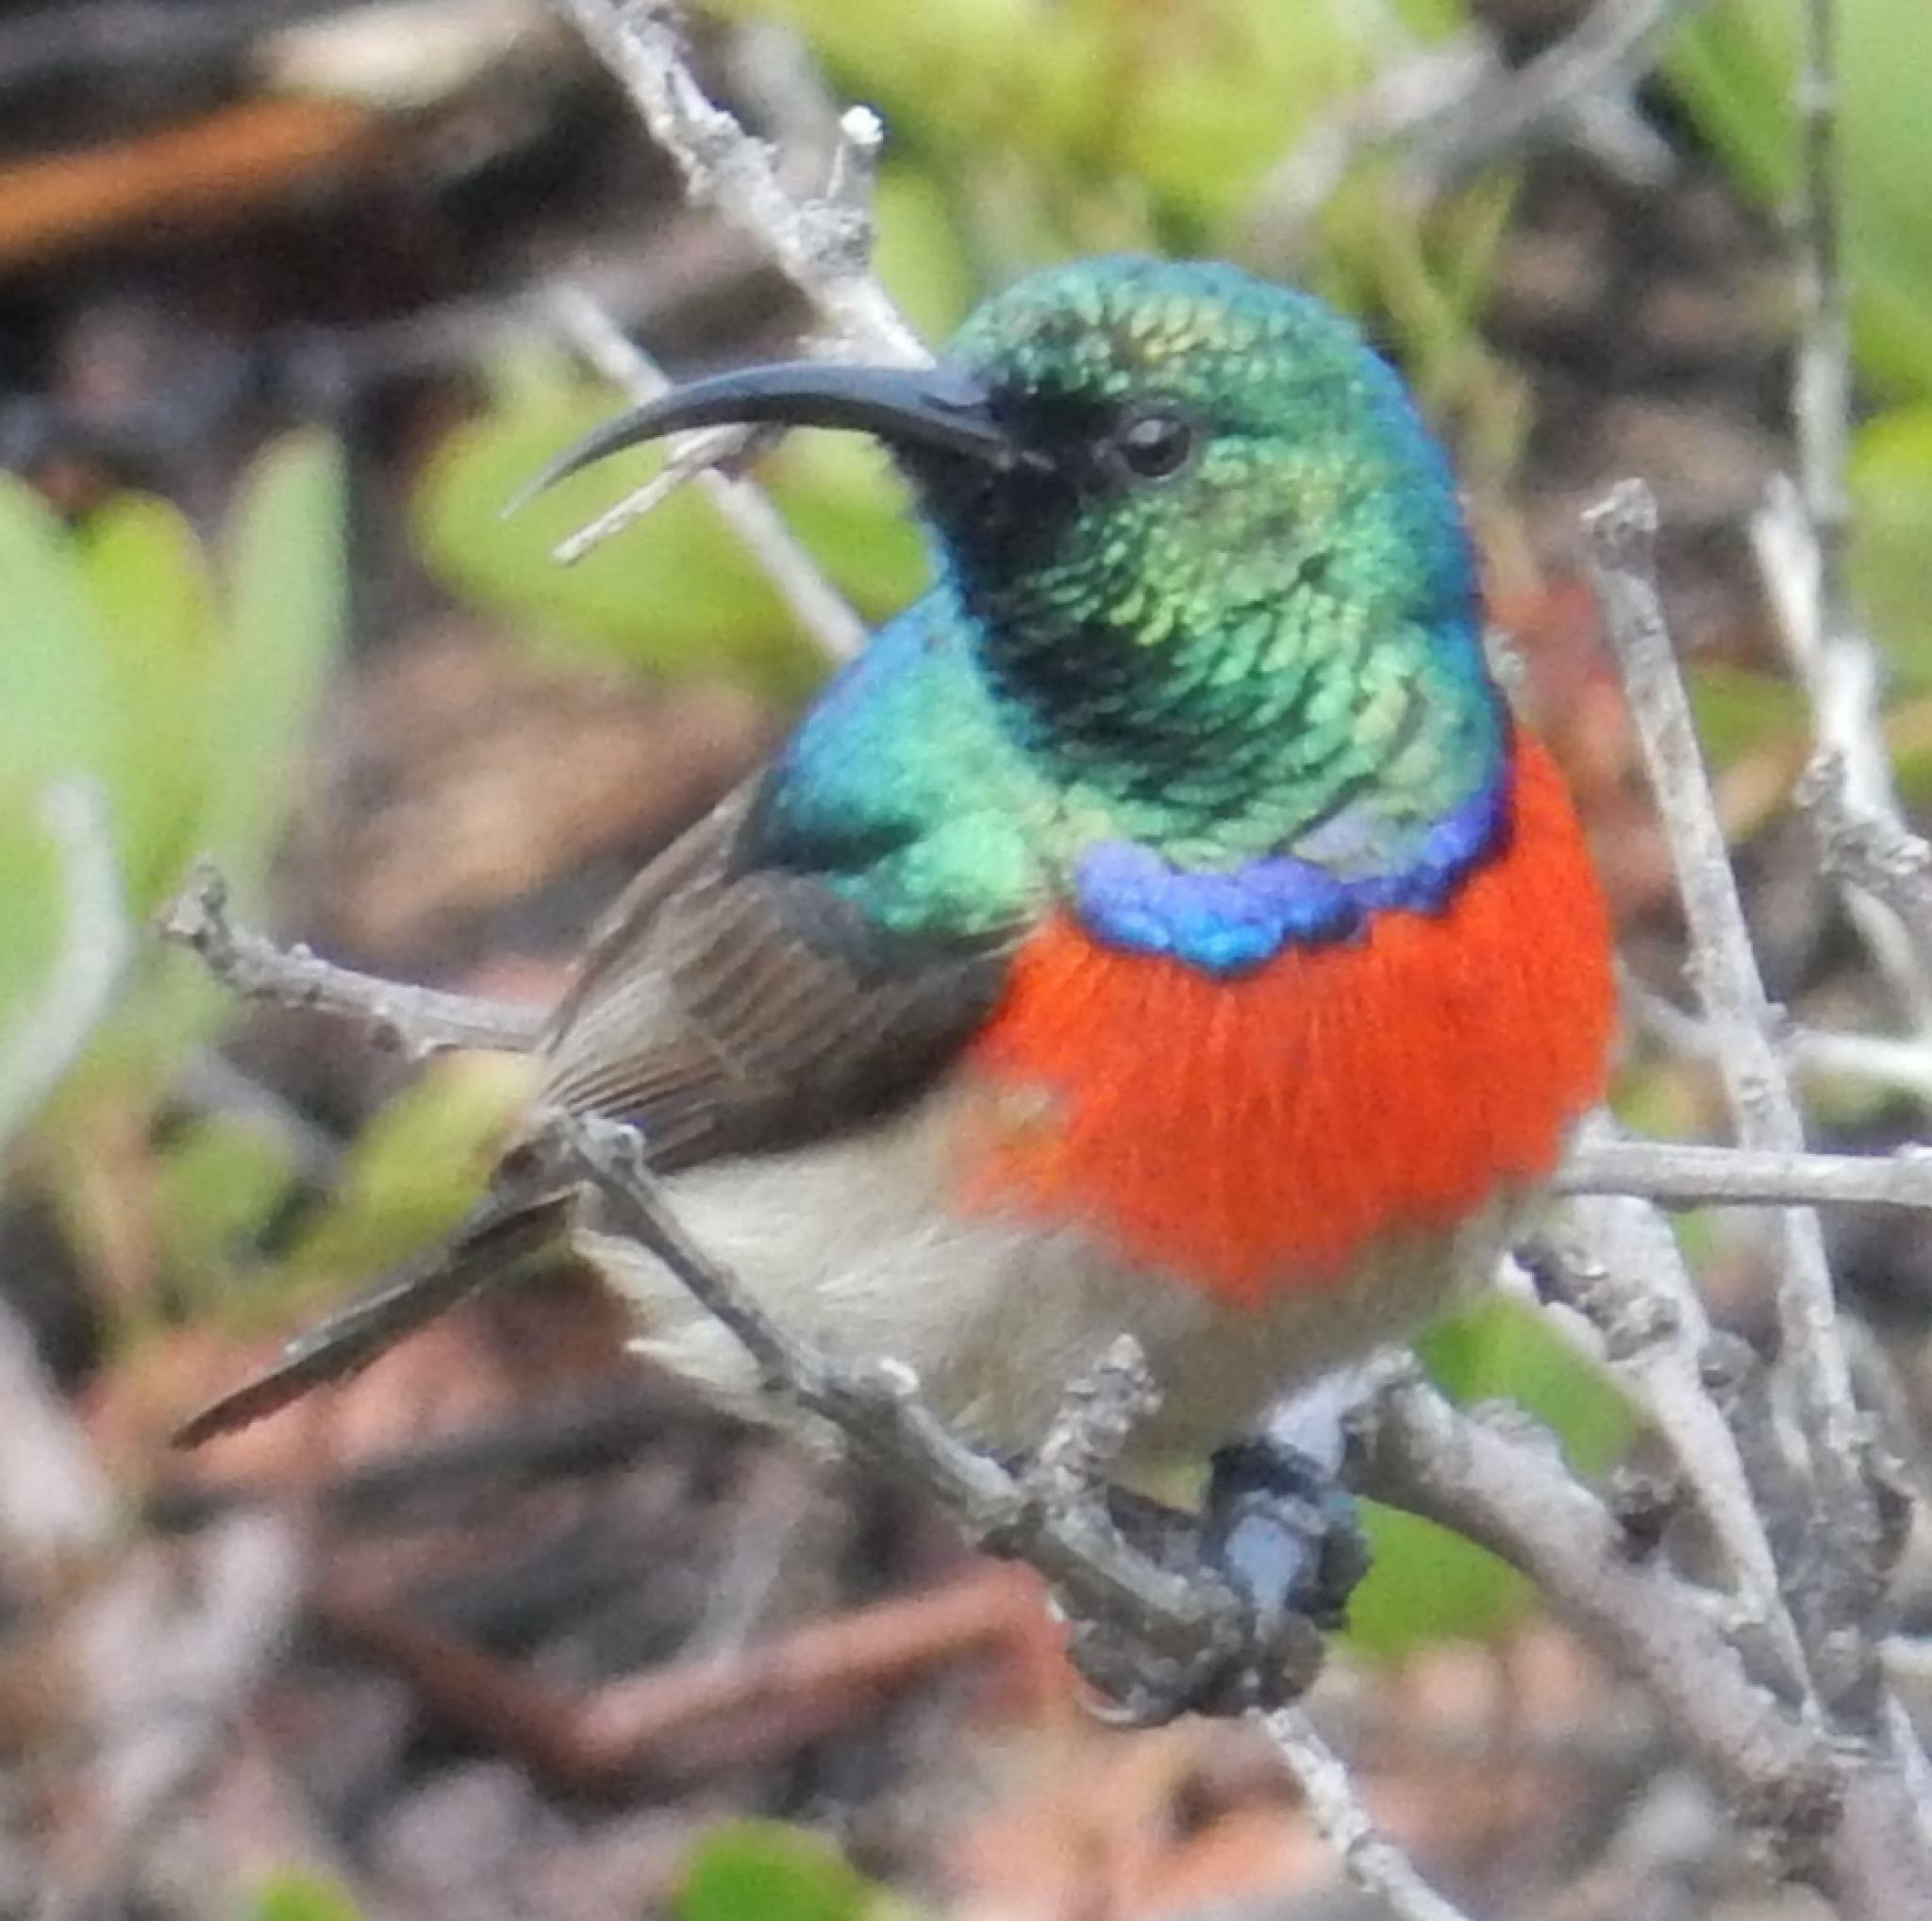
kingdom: Animalia
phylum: Chordata
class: Aves
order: Passeriformes
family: Nectariniidae
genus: Cinnyris
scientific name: Cinnyris afer
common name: Greater double-collared sunbird
